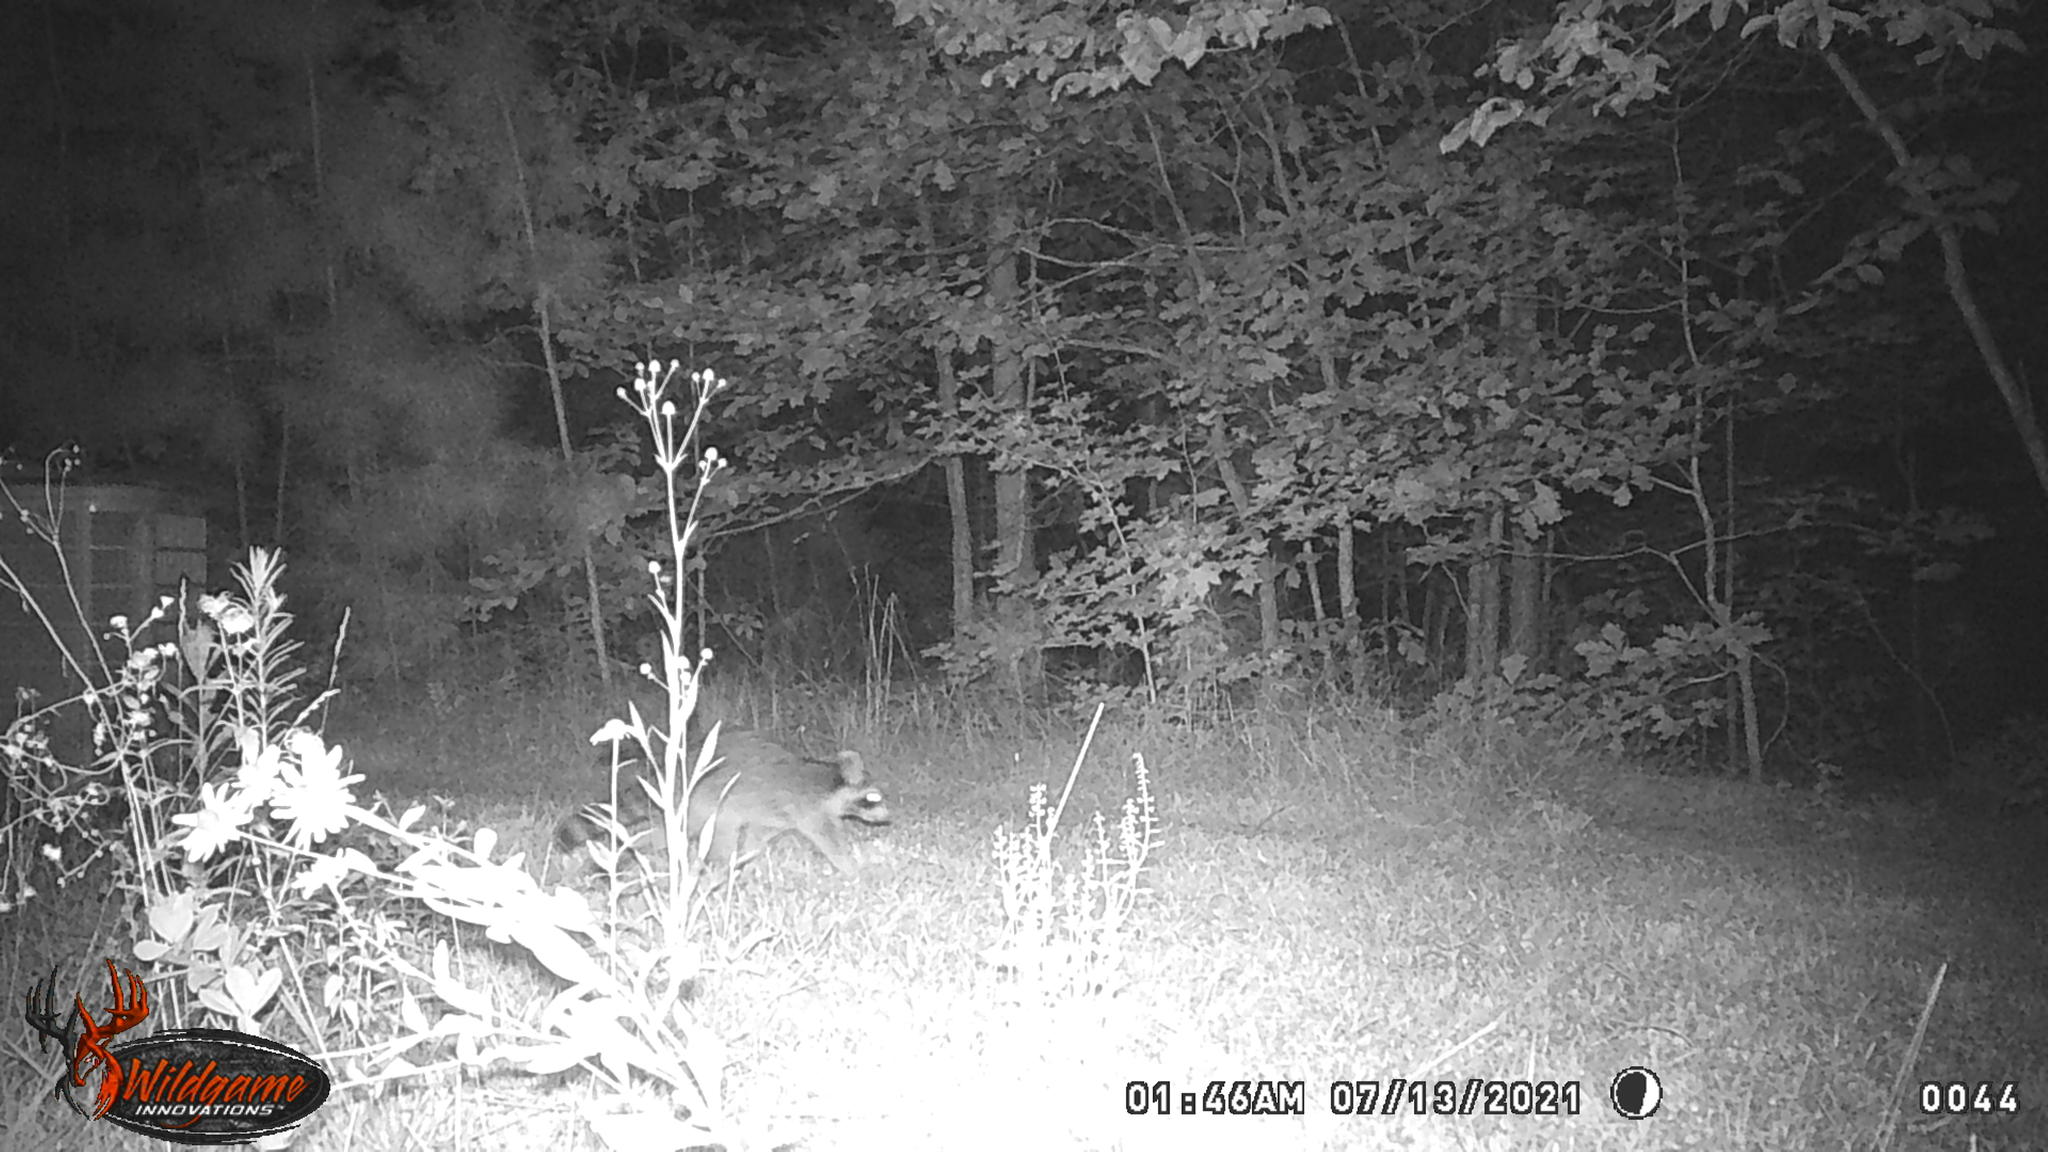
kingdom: Animalia
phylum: Chordata
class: Mammalia
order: Carnivora
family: Procyonidae
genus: Procyon
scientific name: Procyon lotor
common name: Raccoon
